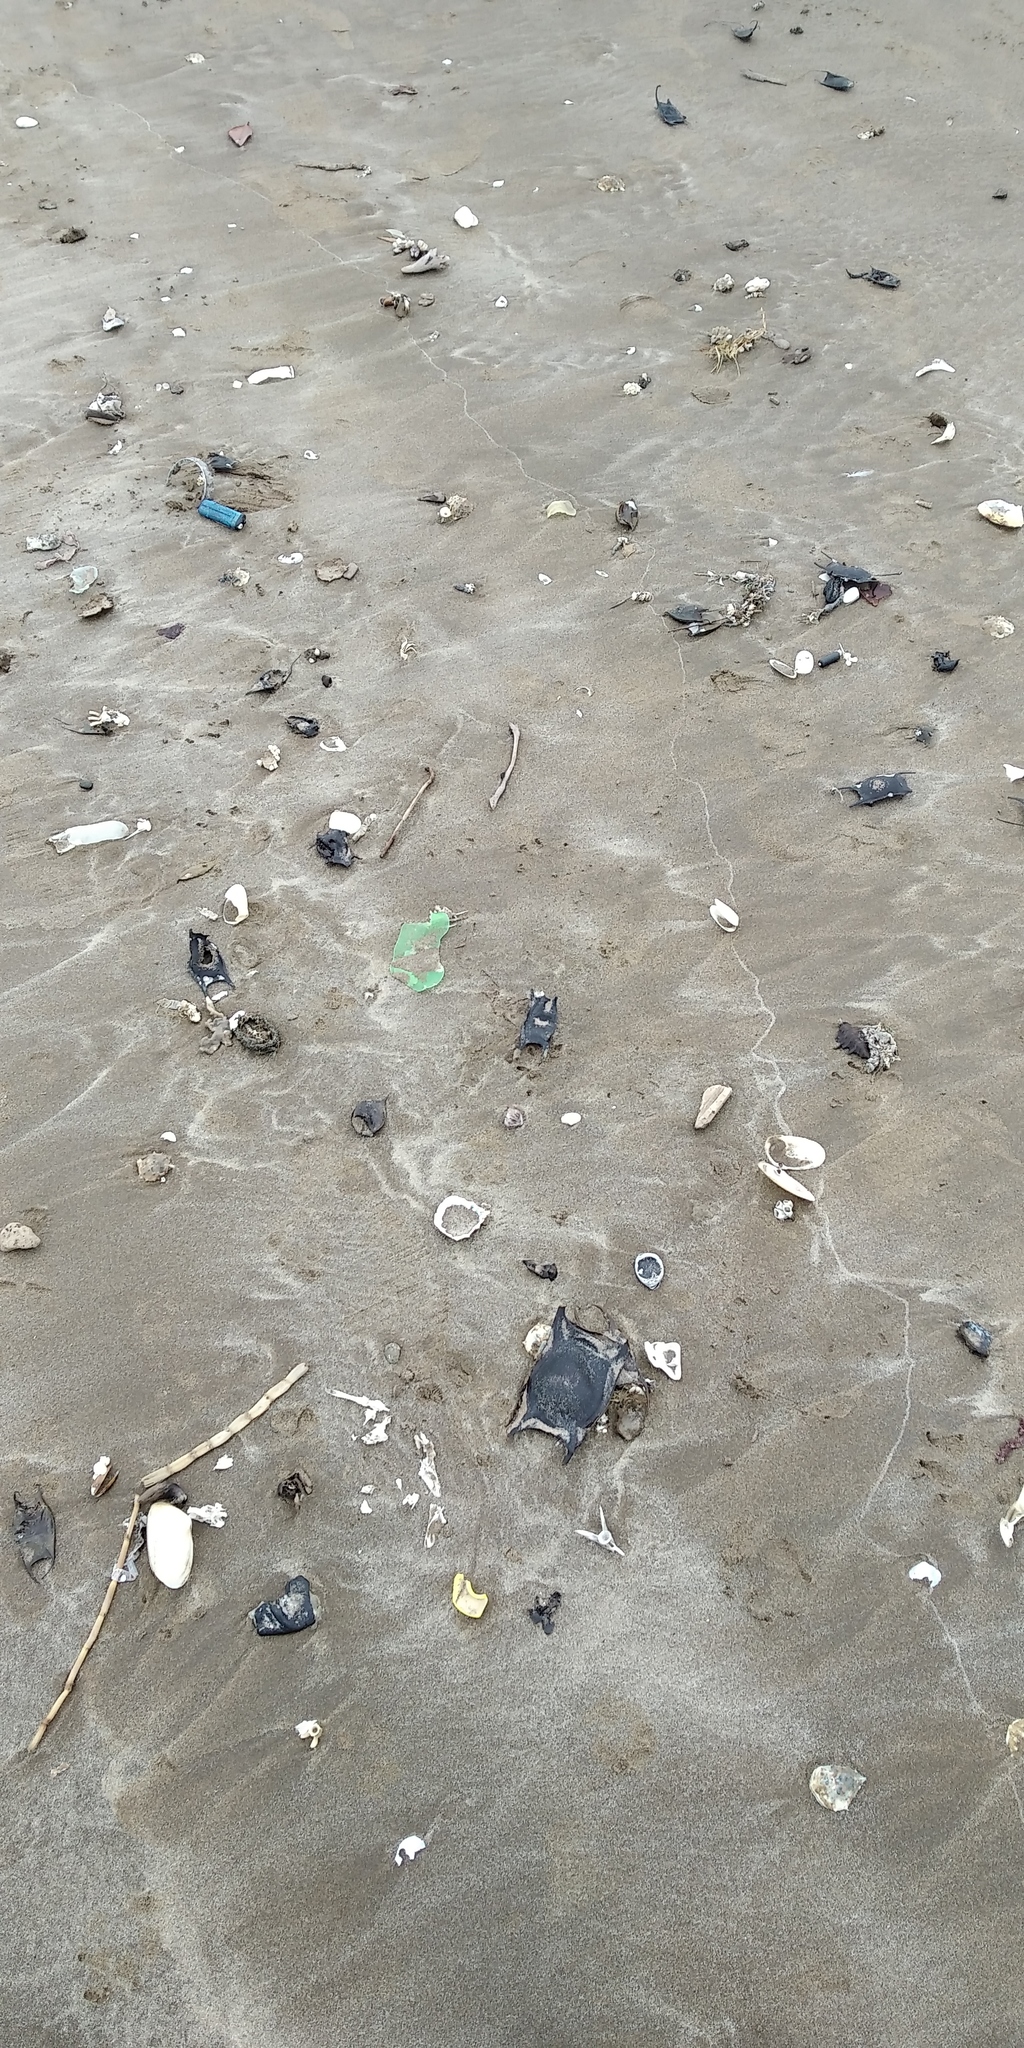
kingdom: Animalia
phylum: Chordata
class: Elasmobranchii
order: Rajiformes
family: Rajidae
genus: Amblyraja
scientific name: Amblyraja doellojuradoi
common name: Southern thorny skate
